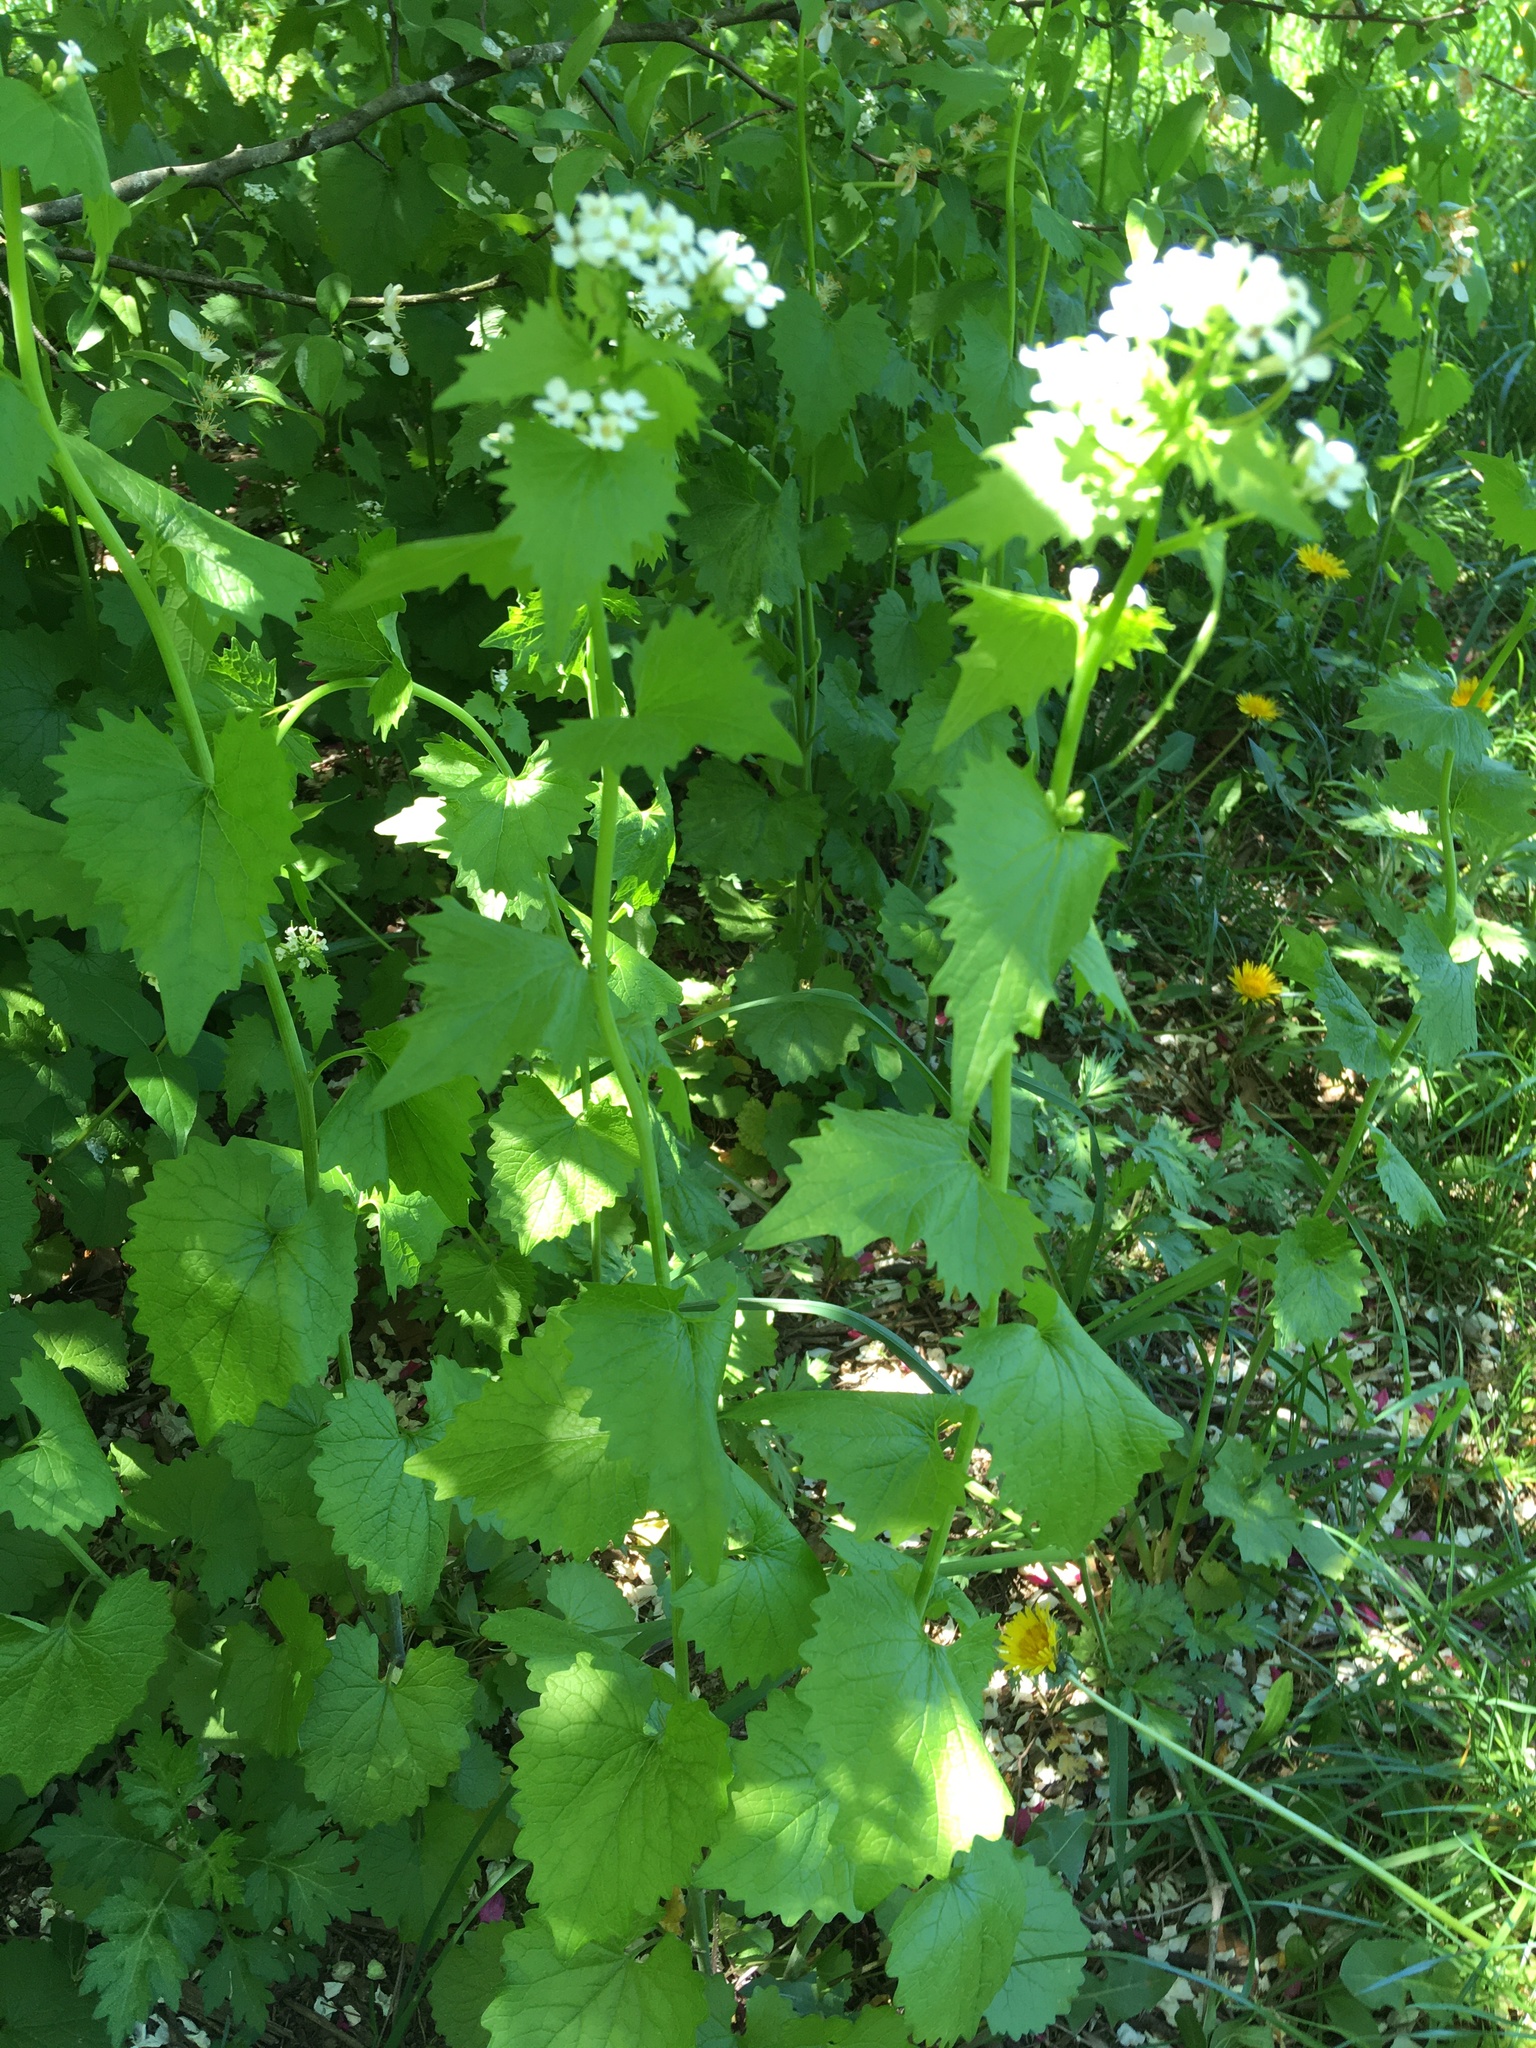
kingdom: Plantae
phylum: Tracheophyta
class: Magnoliopsida
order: Brassicales
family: Brassicaceae
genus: Alliaria
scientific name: Alliaria petiolata
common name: Garlic mustard
